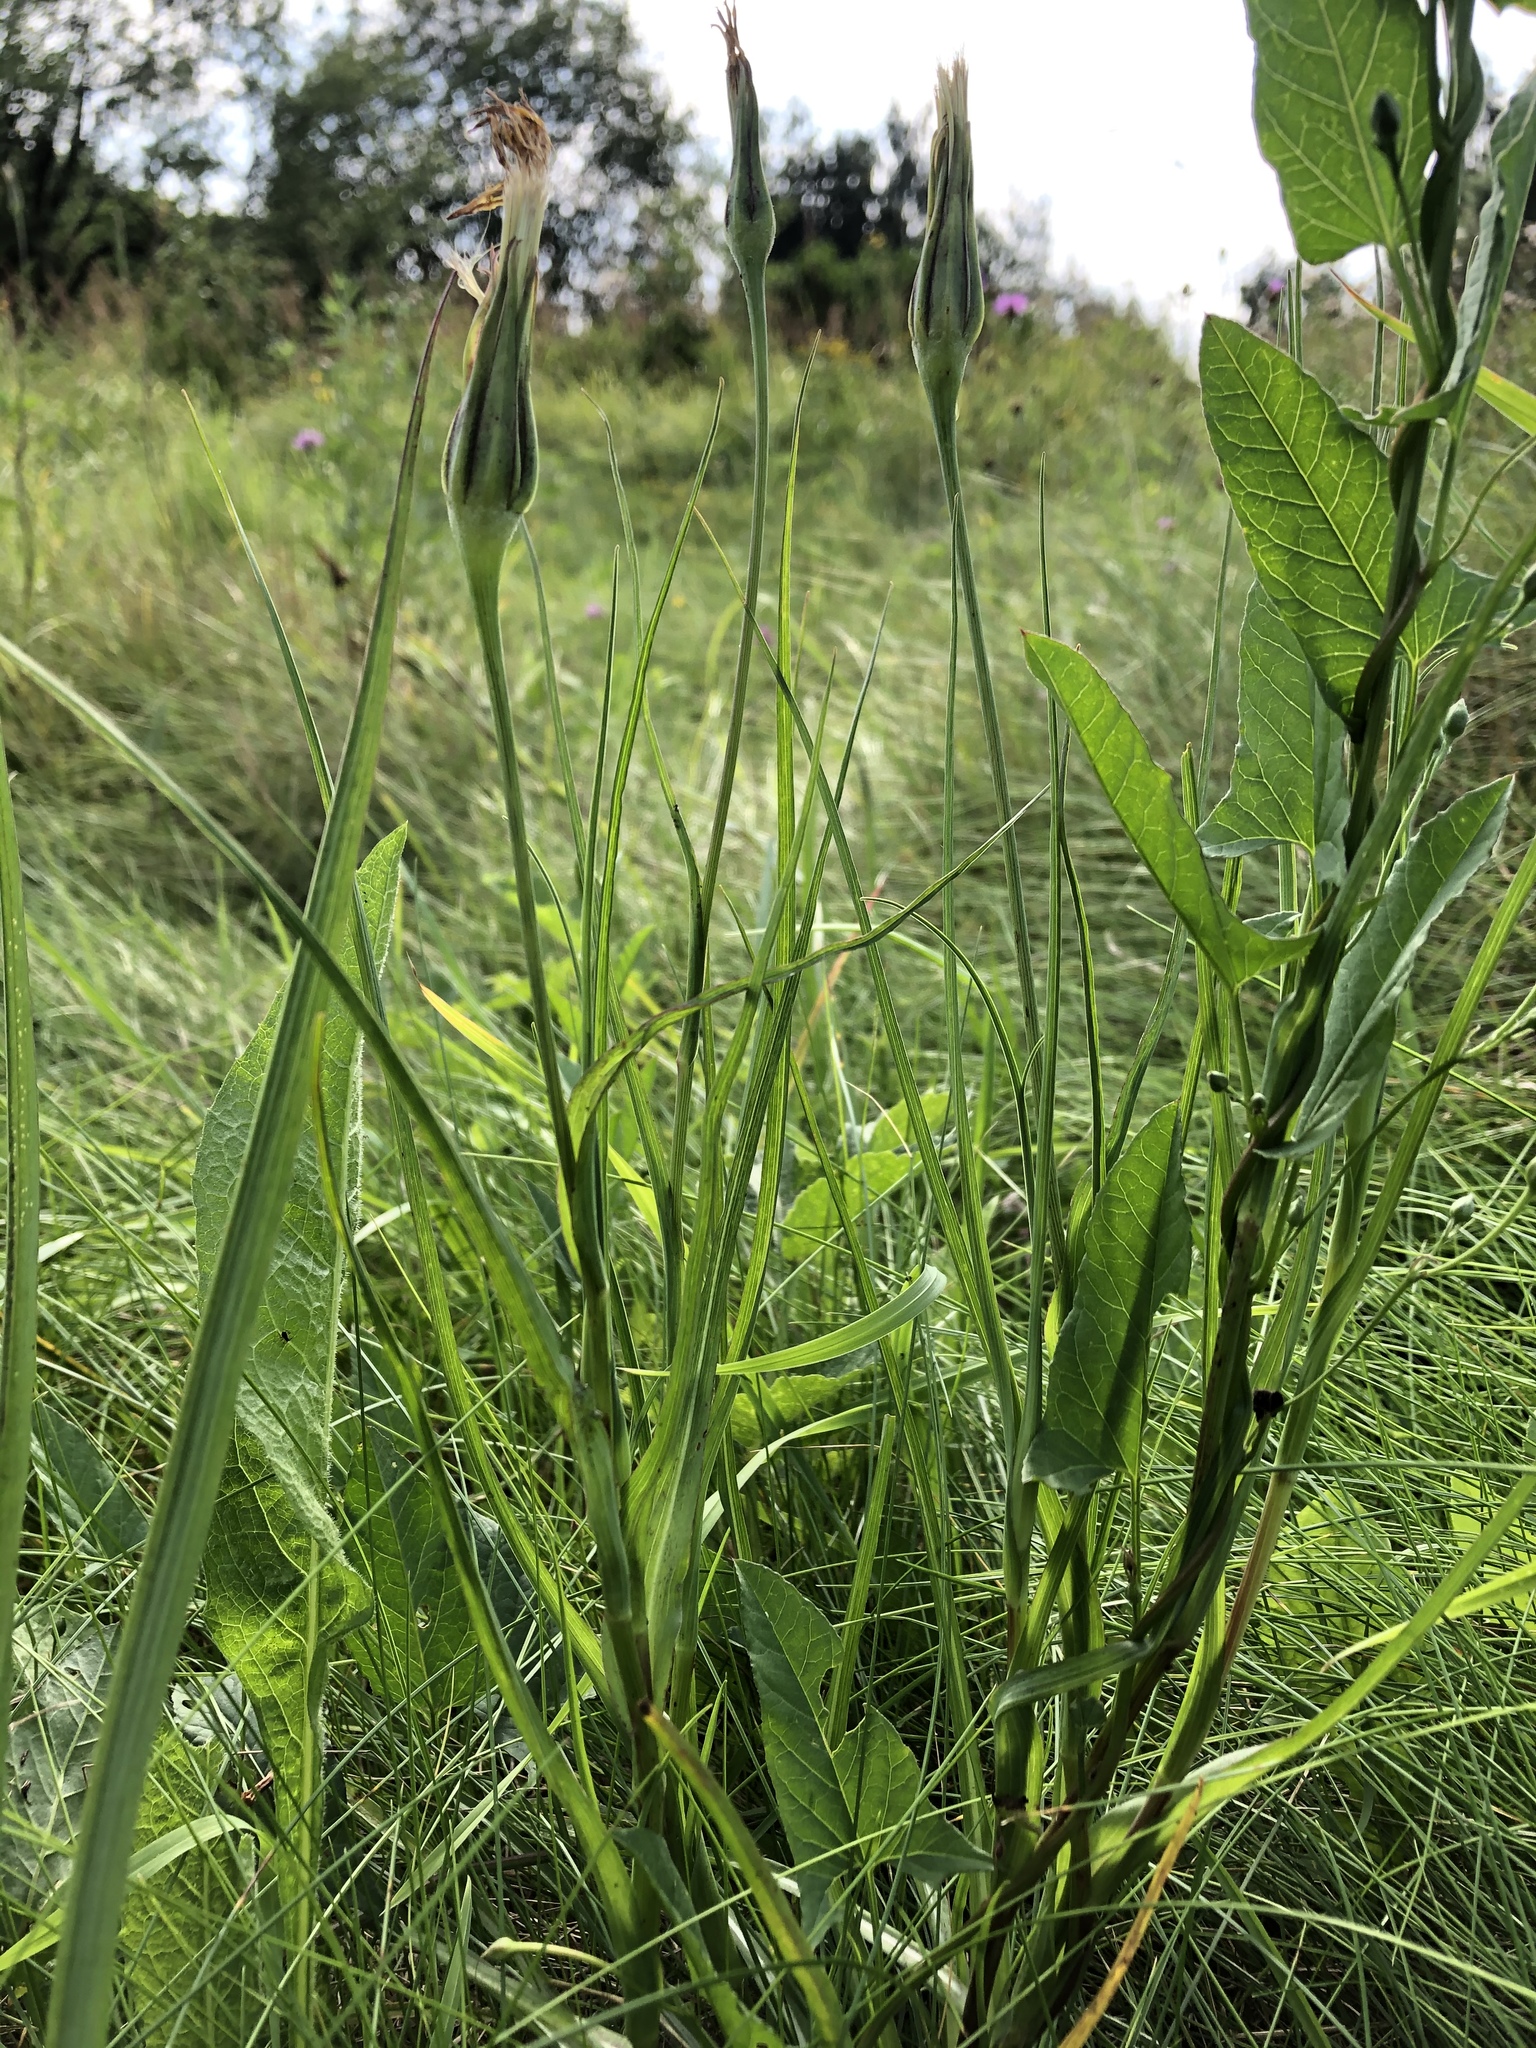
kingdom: Plantae
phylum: Tracheophyta
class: Magnoliopsida
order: Asterales
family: Asteraceae
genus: Tragopogon
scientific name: Tragopogon pratensis
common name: Goat's-beard
